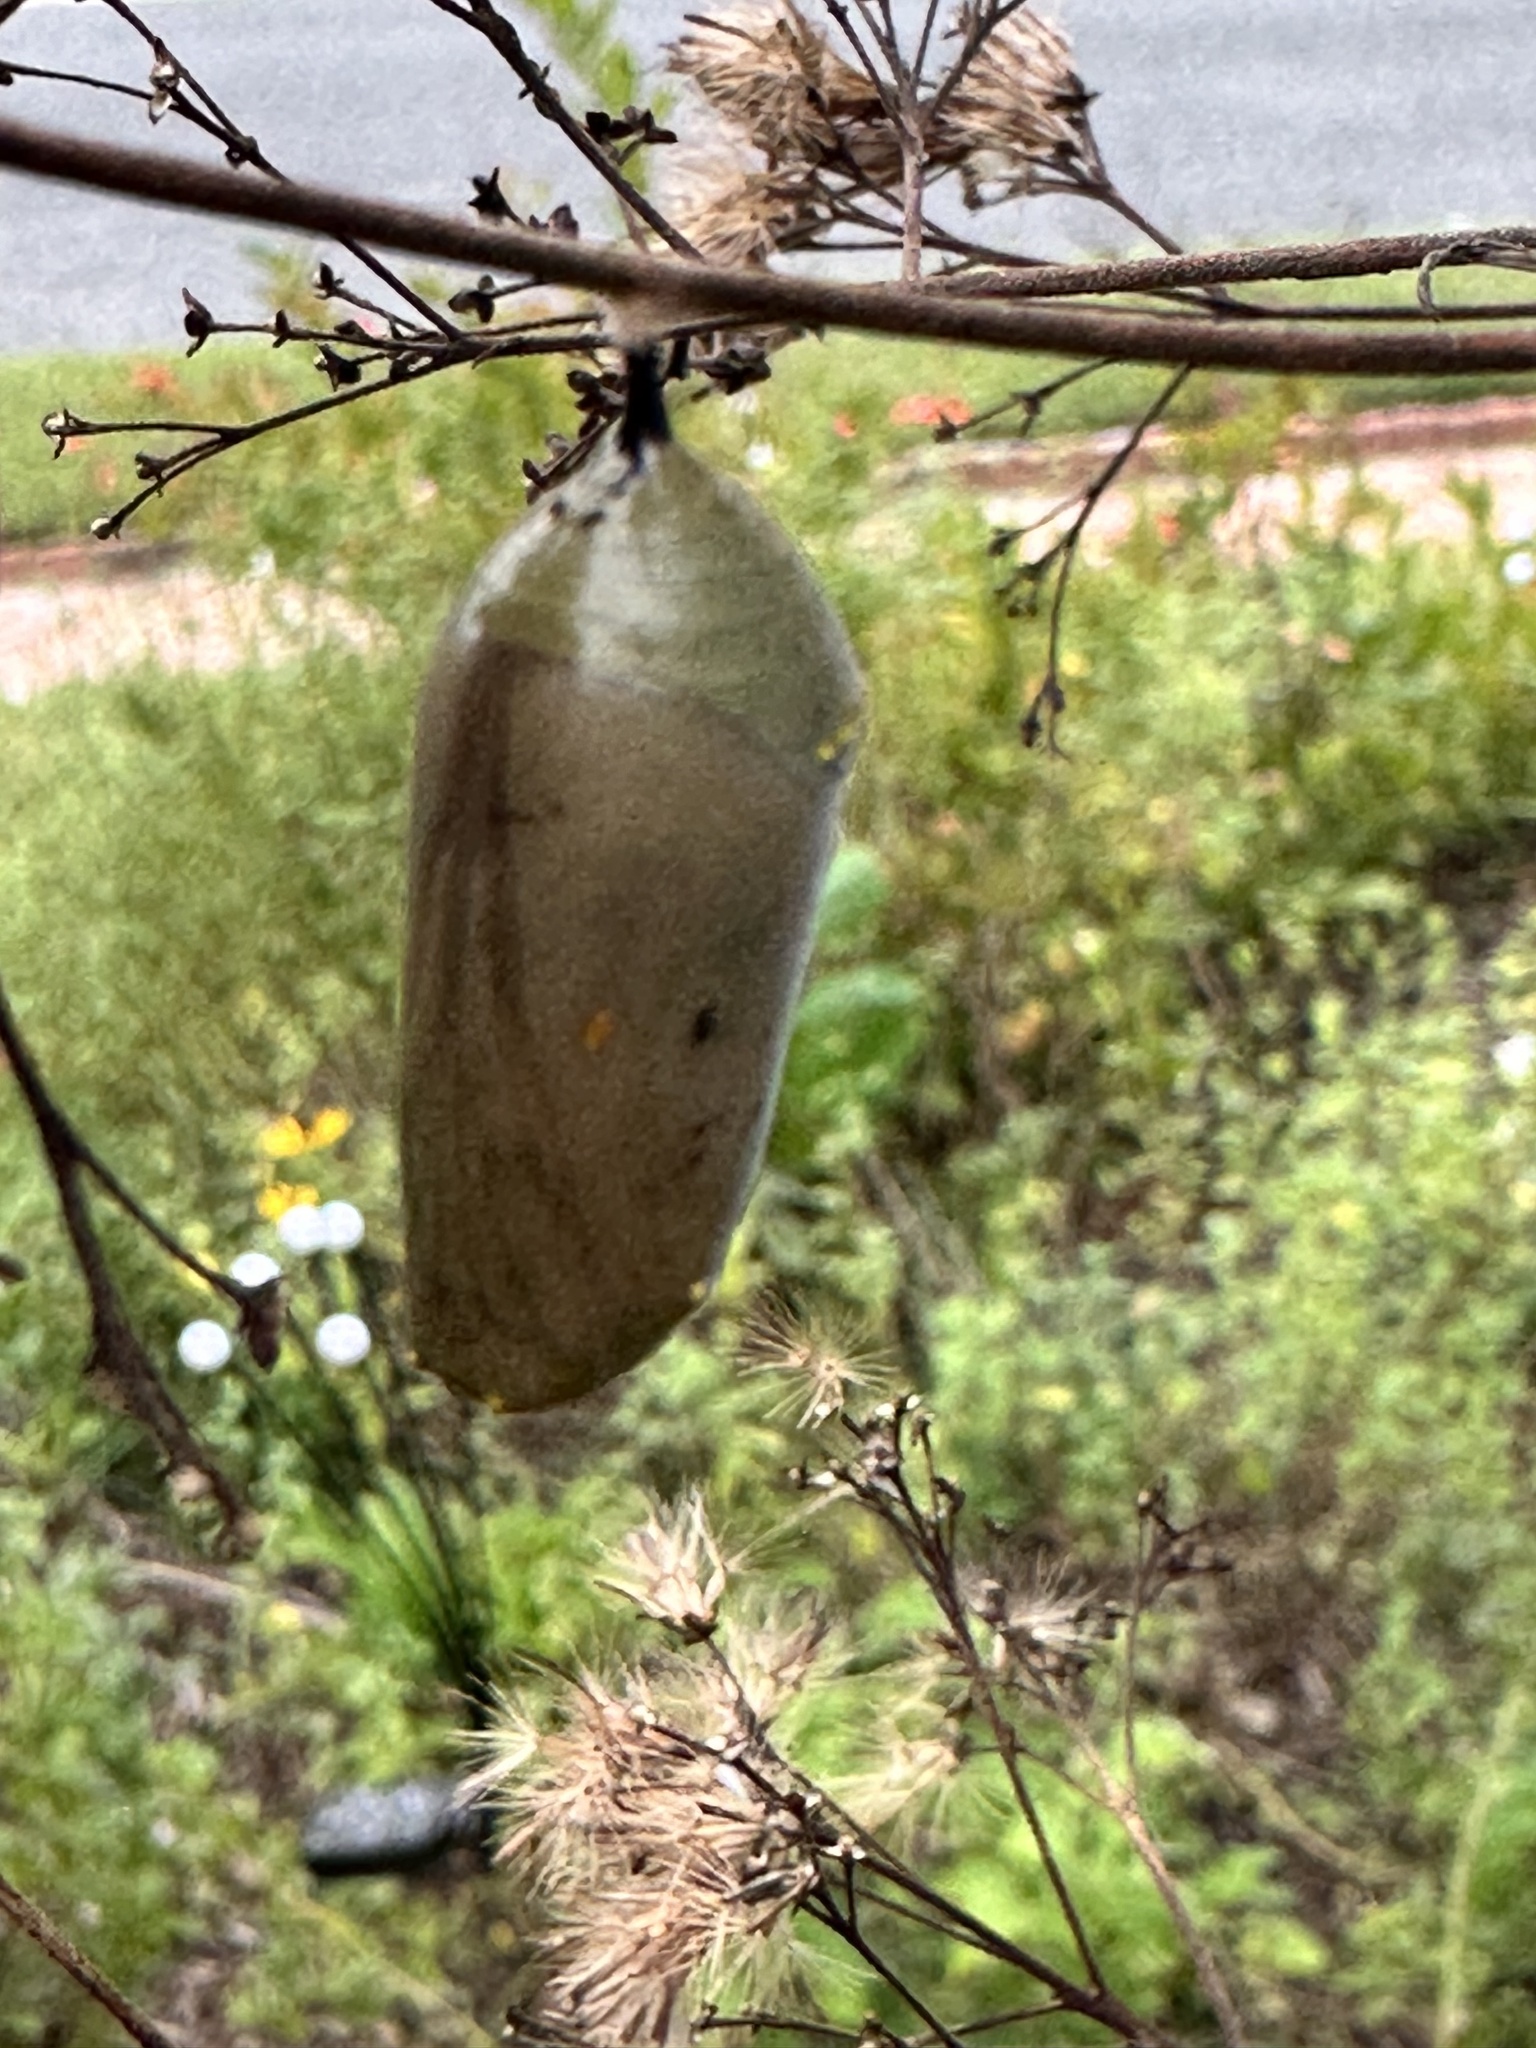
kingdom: Animalia
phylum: Arthropoda
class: Insecta
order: Lepidoptera
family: Nymphalidae
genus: Danaus
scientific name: Danaus plexippus
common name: Monarch
